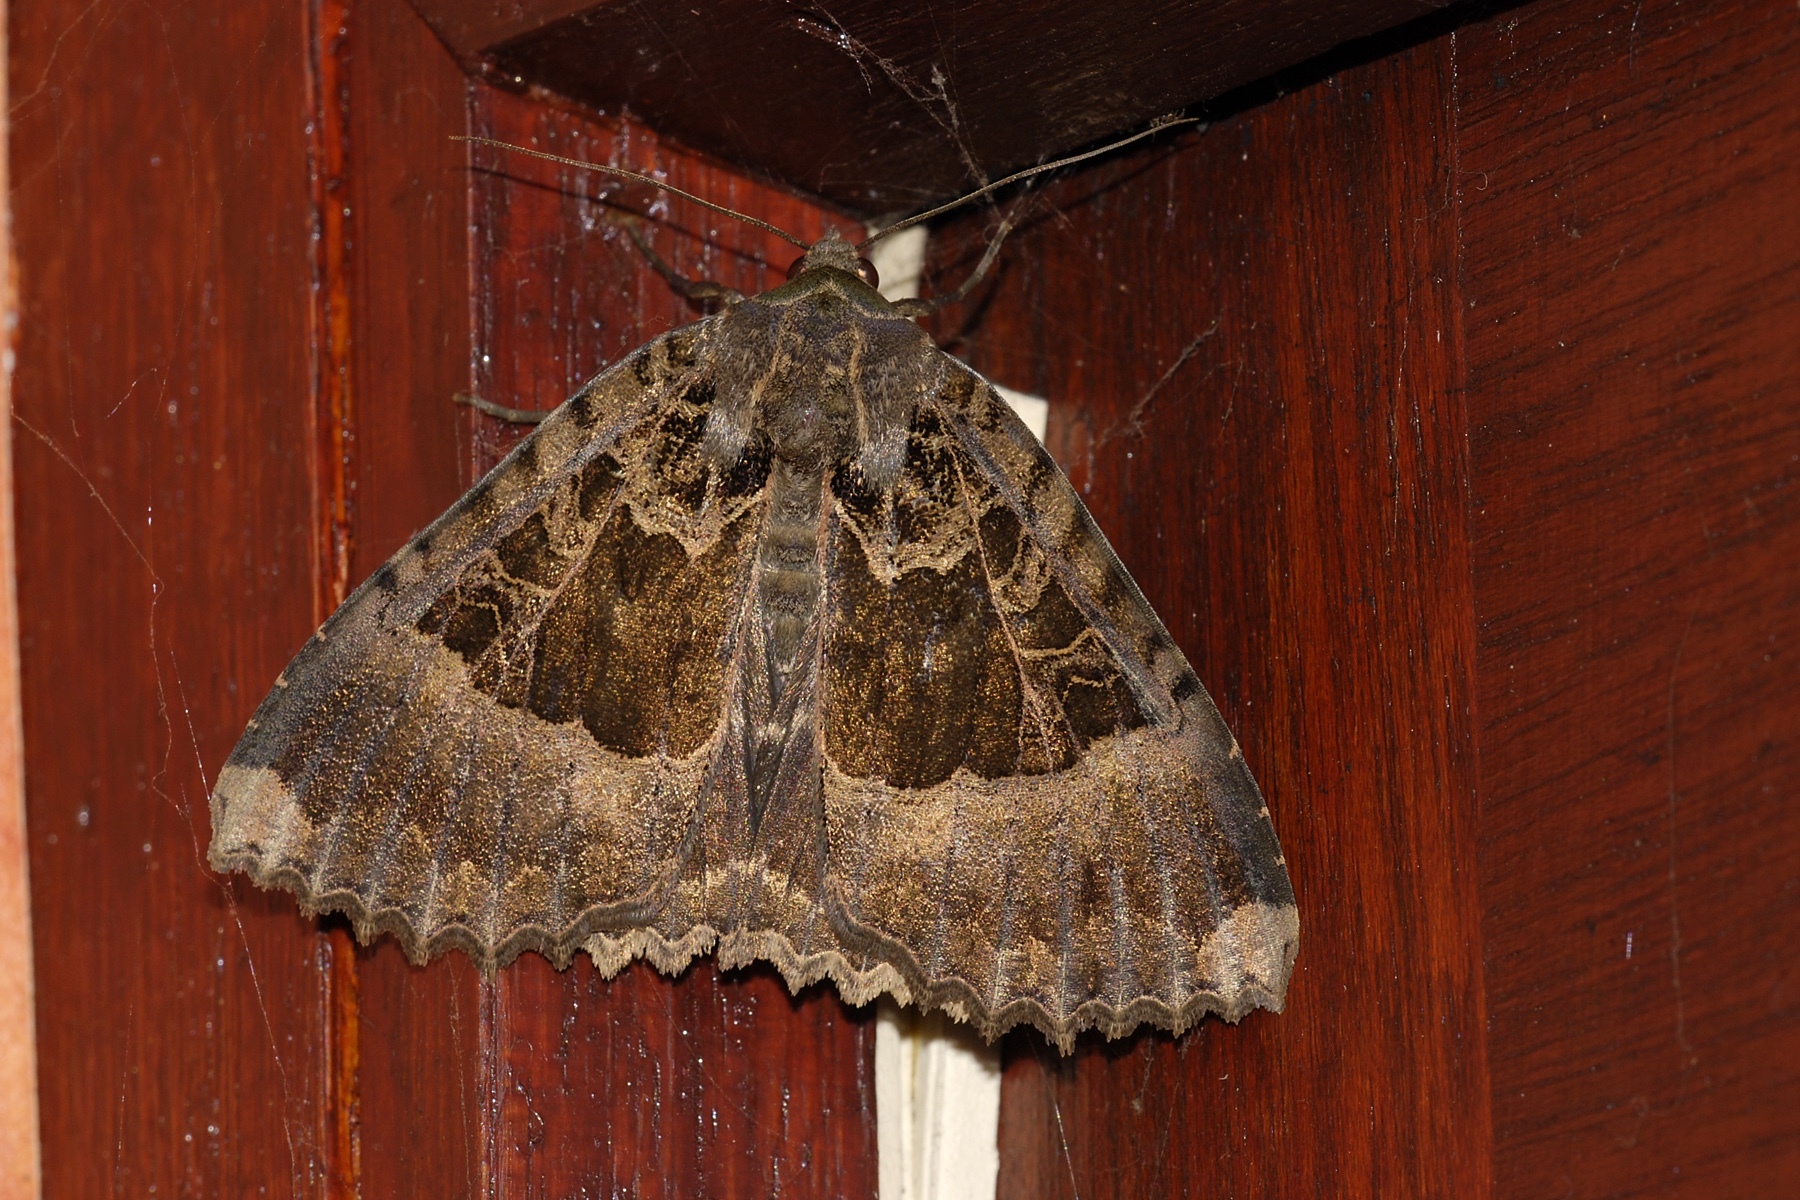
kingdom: Animalia
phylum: Arthropoda
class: Insecta
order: Lepidoptera
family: Noctuidae
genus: Mormo
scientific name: Mormo maura
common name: Old lady
